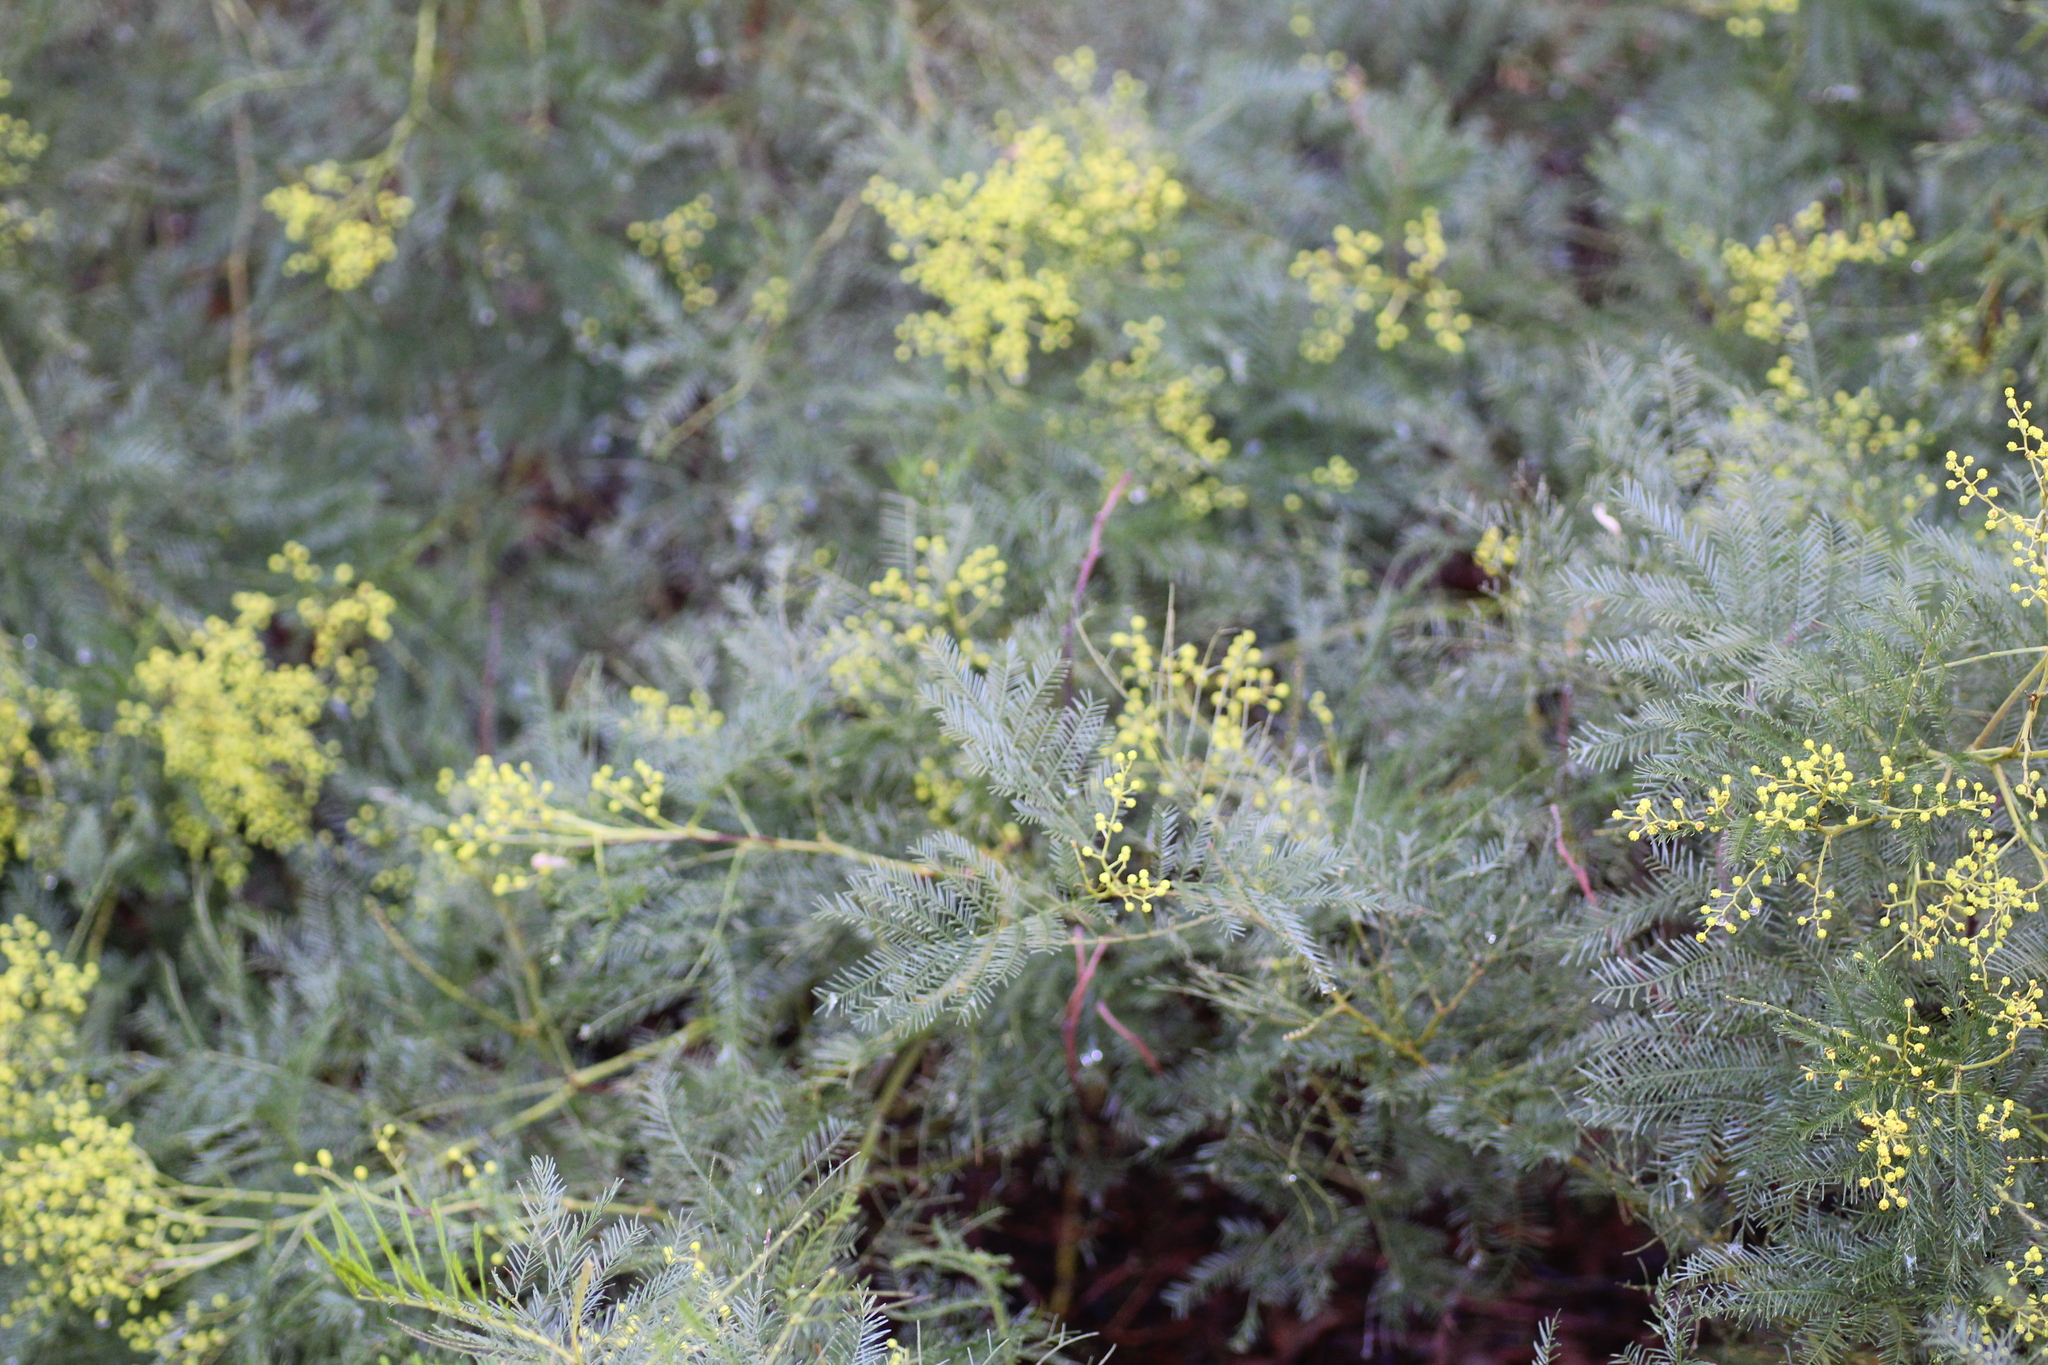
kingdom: Plantae
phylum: Tracheophyta
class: Magnoliopsida
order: Fabales
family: Fabaceae
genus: Acacia
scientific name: Acacia dealbata
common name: Silver wattle
